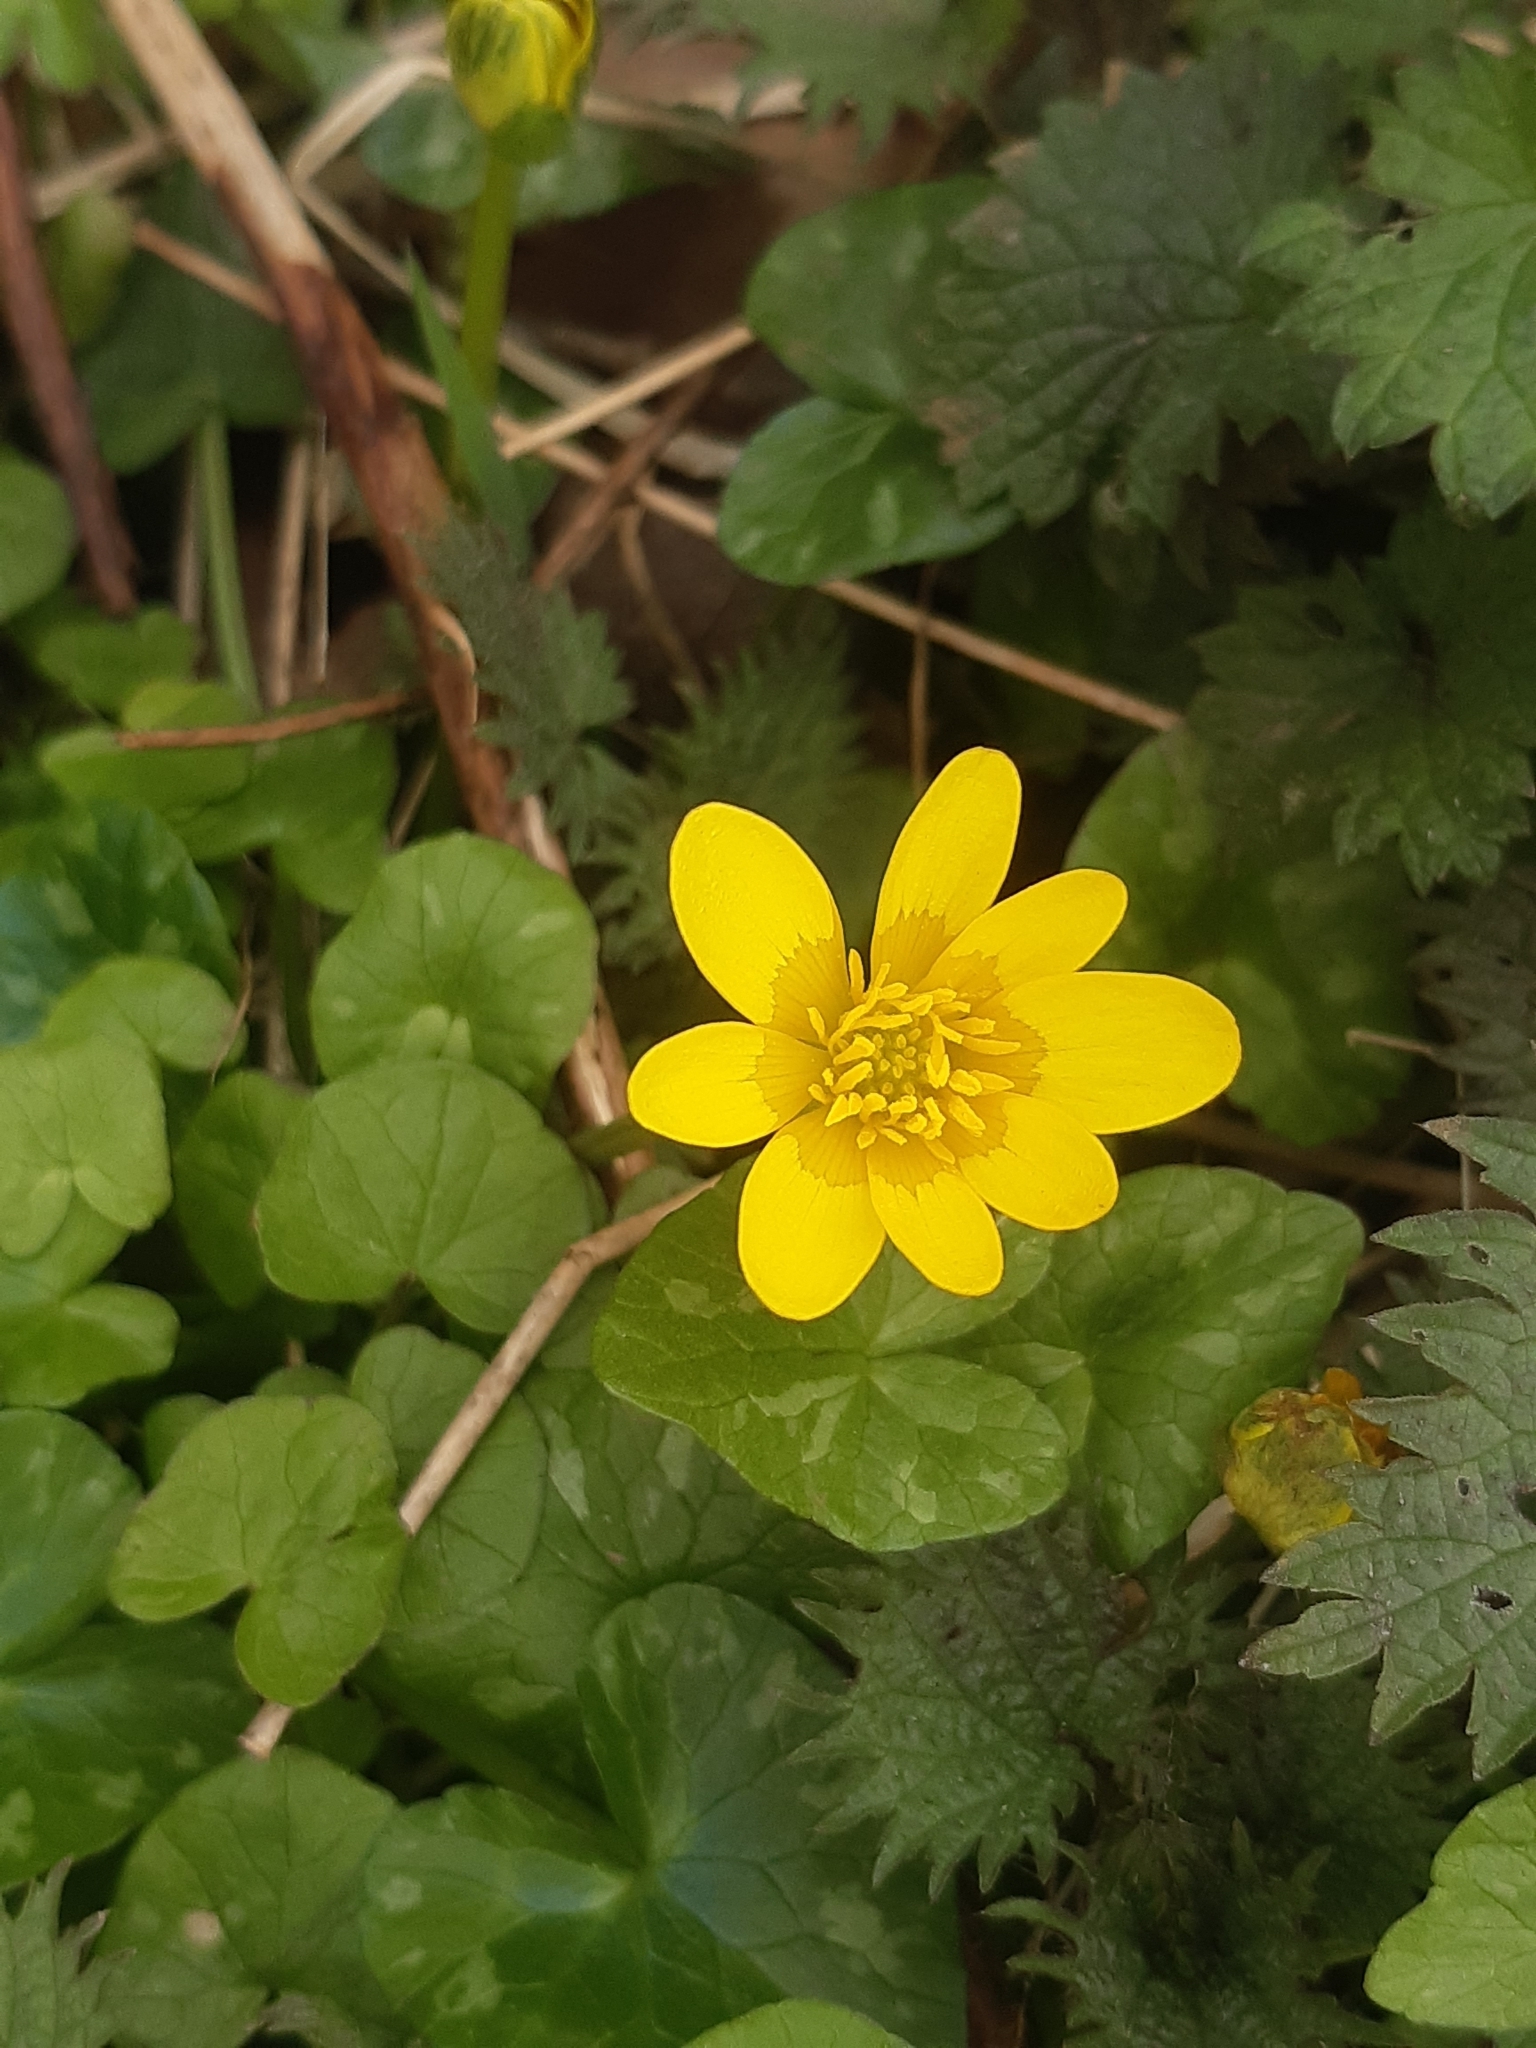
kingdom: Plantae
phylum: Tracheophyta
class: Magnoliopsida
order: Ranunculales
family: Ranunculaceae
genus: Ficaria
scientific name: Ficaria verna
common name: Lesser celandine
